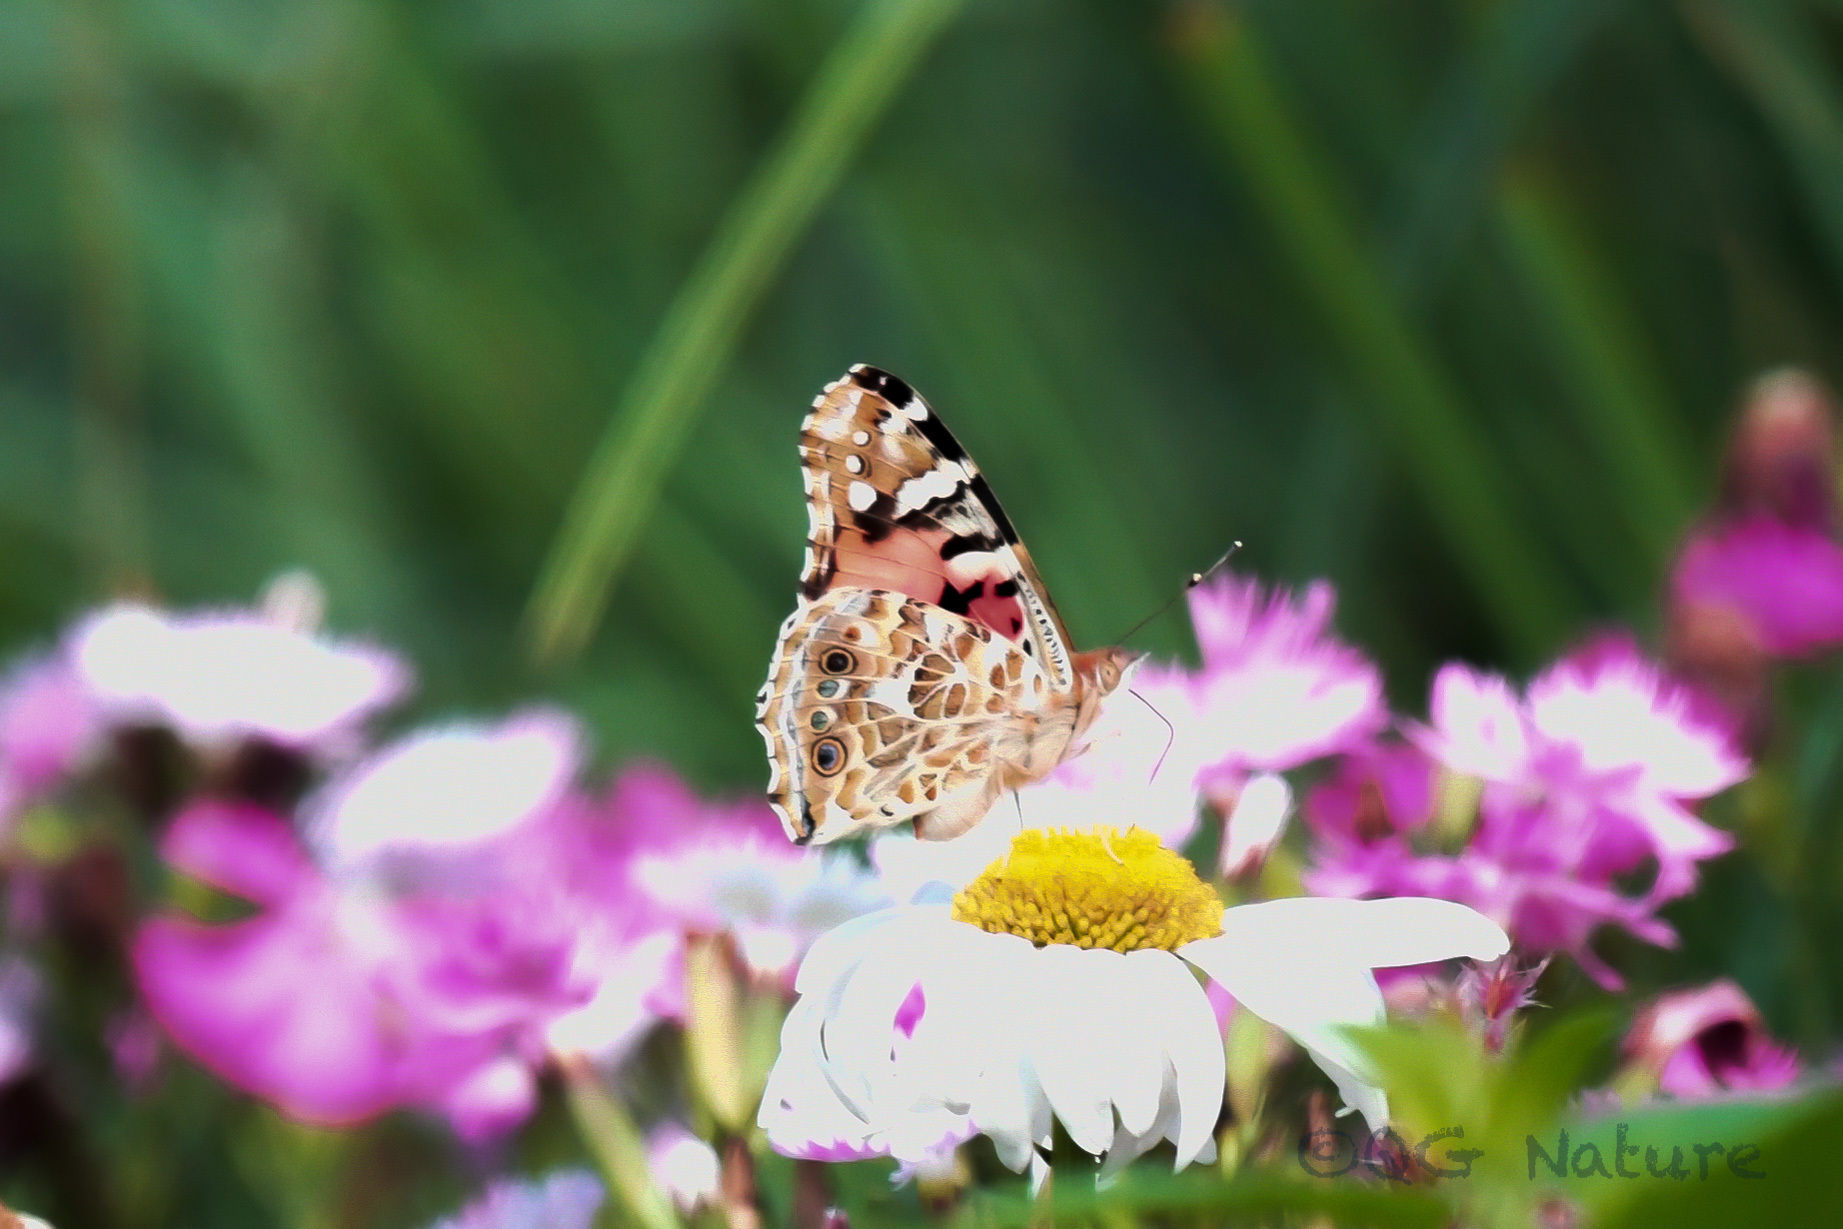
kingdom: Animalia
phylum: Arthropoda
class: Insecta
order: Lepidoptera
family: Nymphalidae
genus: Vanessa
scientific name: Vanessa cardui
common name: Painted lady
